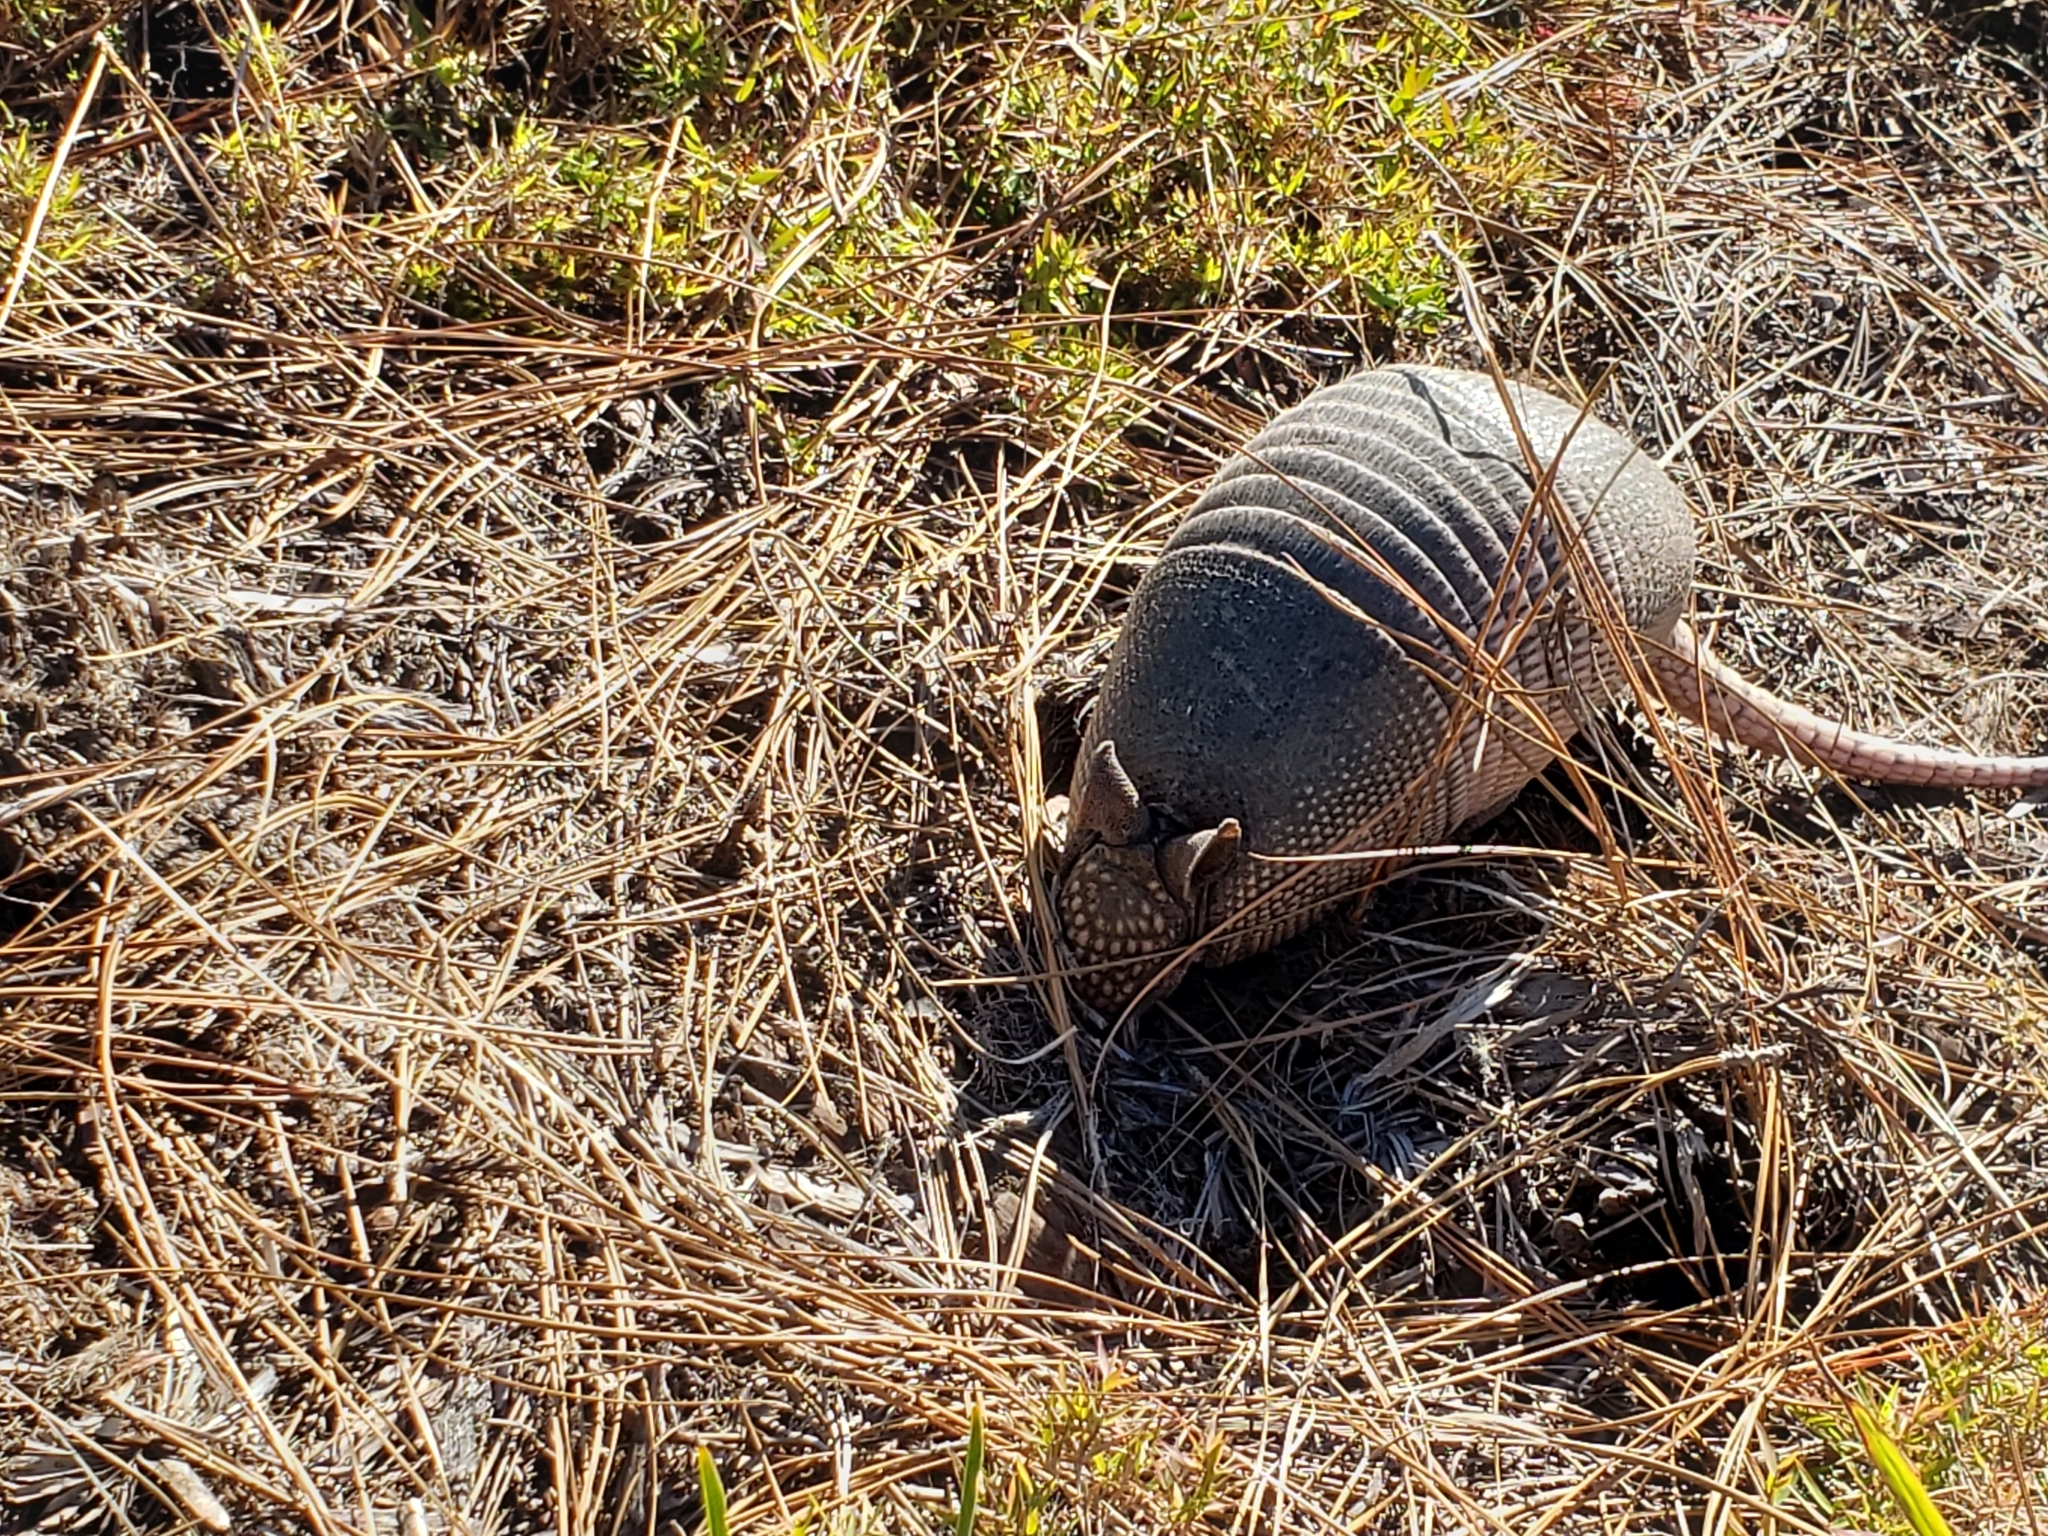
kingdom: Animalia
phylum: Chordata
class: Mammalia
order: Cingulata
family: Dasypodidae
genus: Dasypus
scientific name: Dasypus novemcinctus
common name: Nine-banded armadillo
